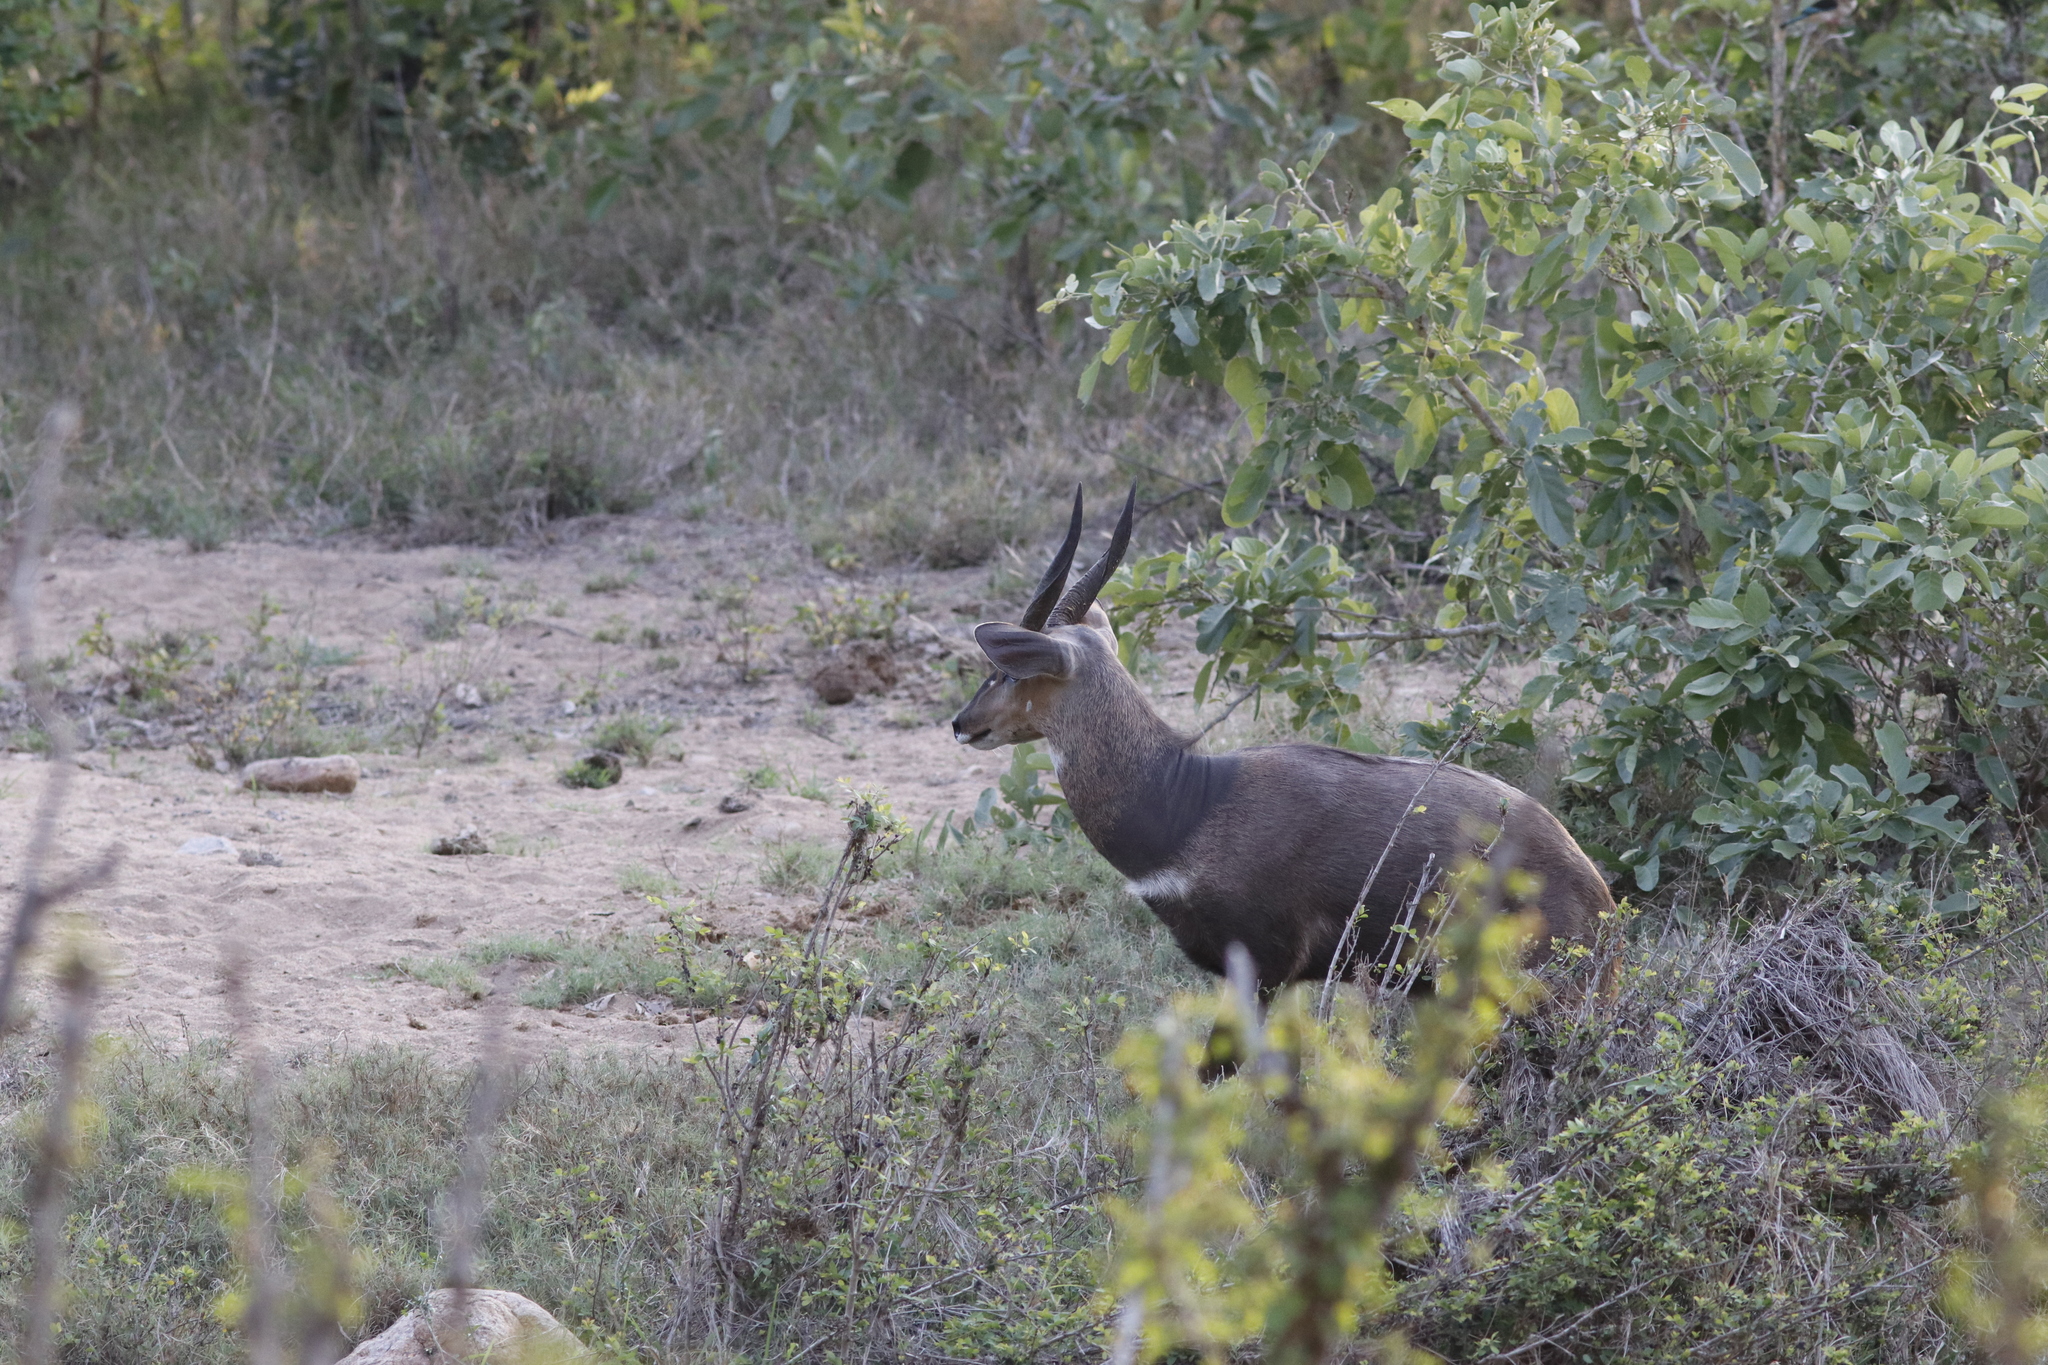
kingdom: Animalia
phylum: Chordata
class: Mammalia
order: Artiodactyla
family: Bovidae
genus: Tragelaphus
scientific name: Tragelaphus scriptus
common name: Bushbuck
